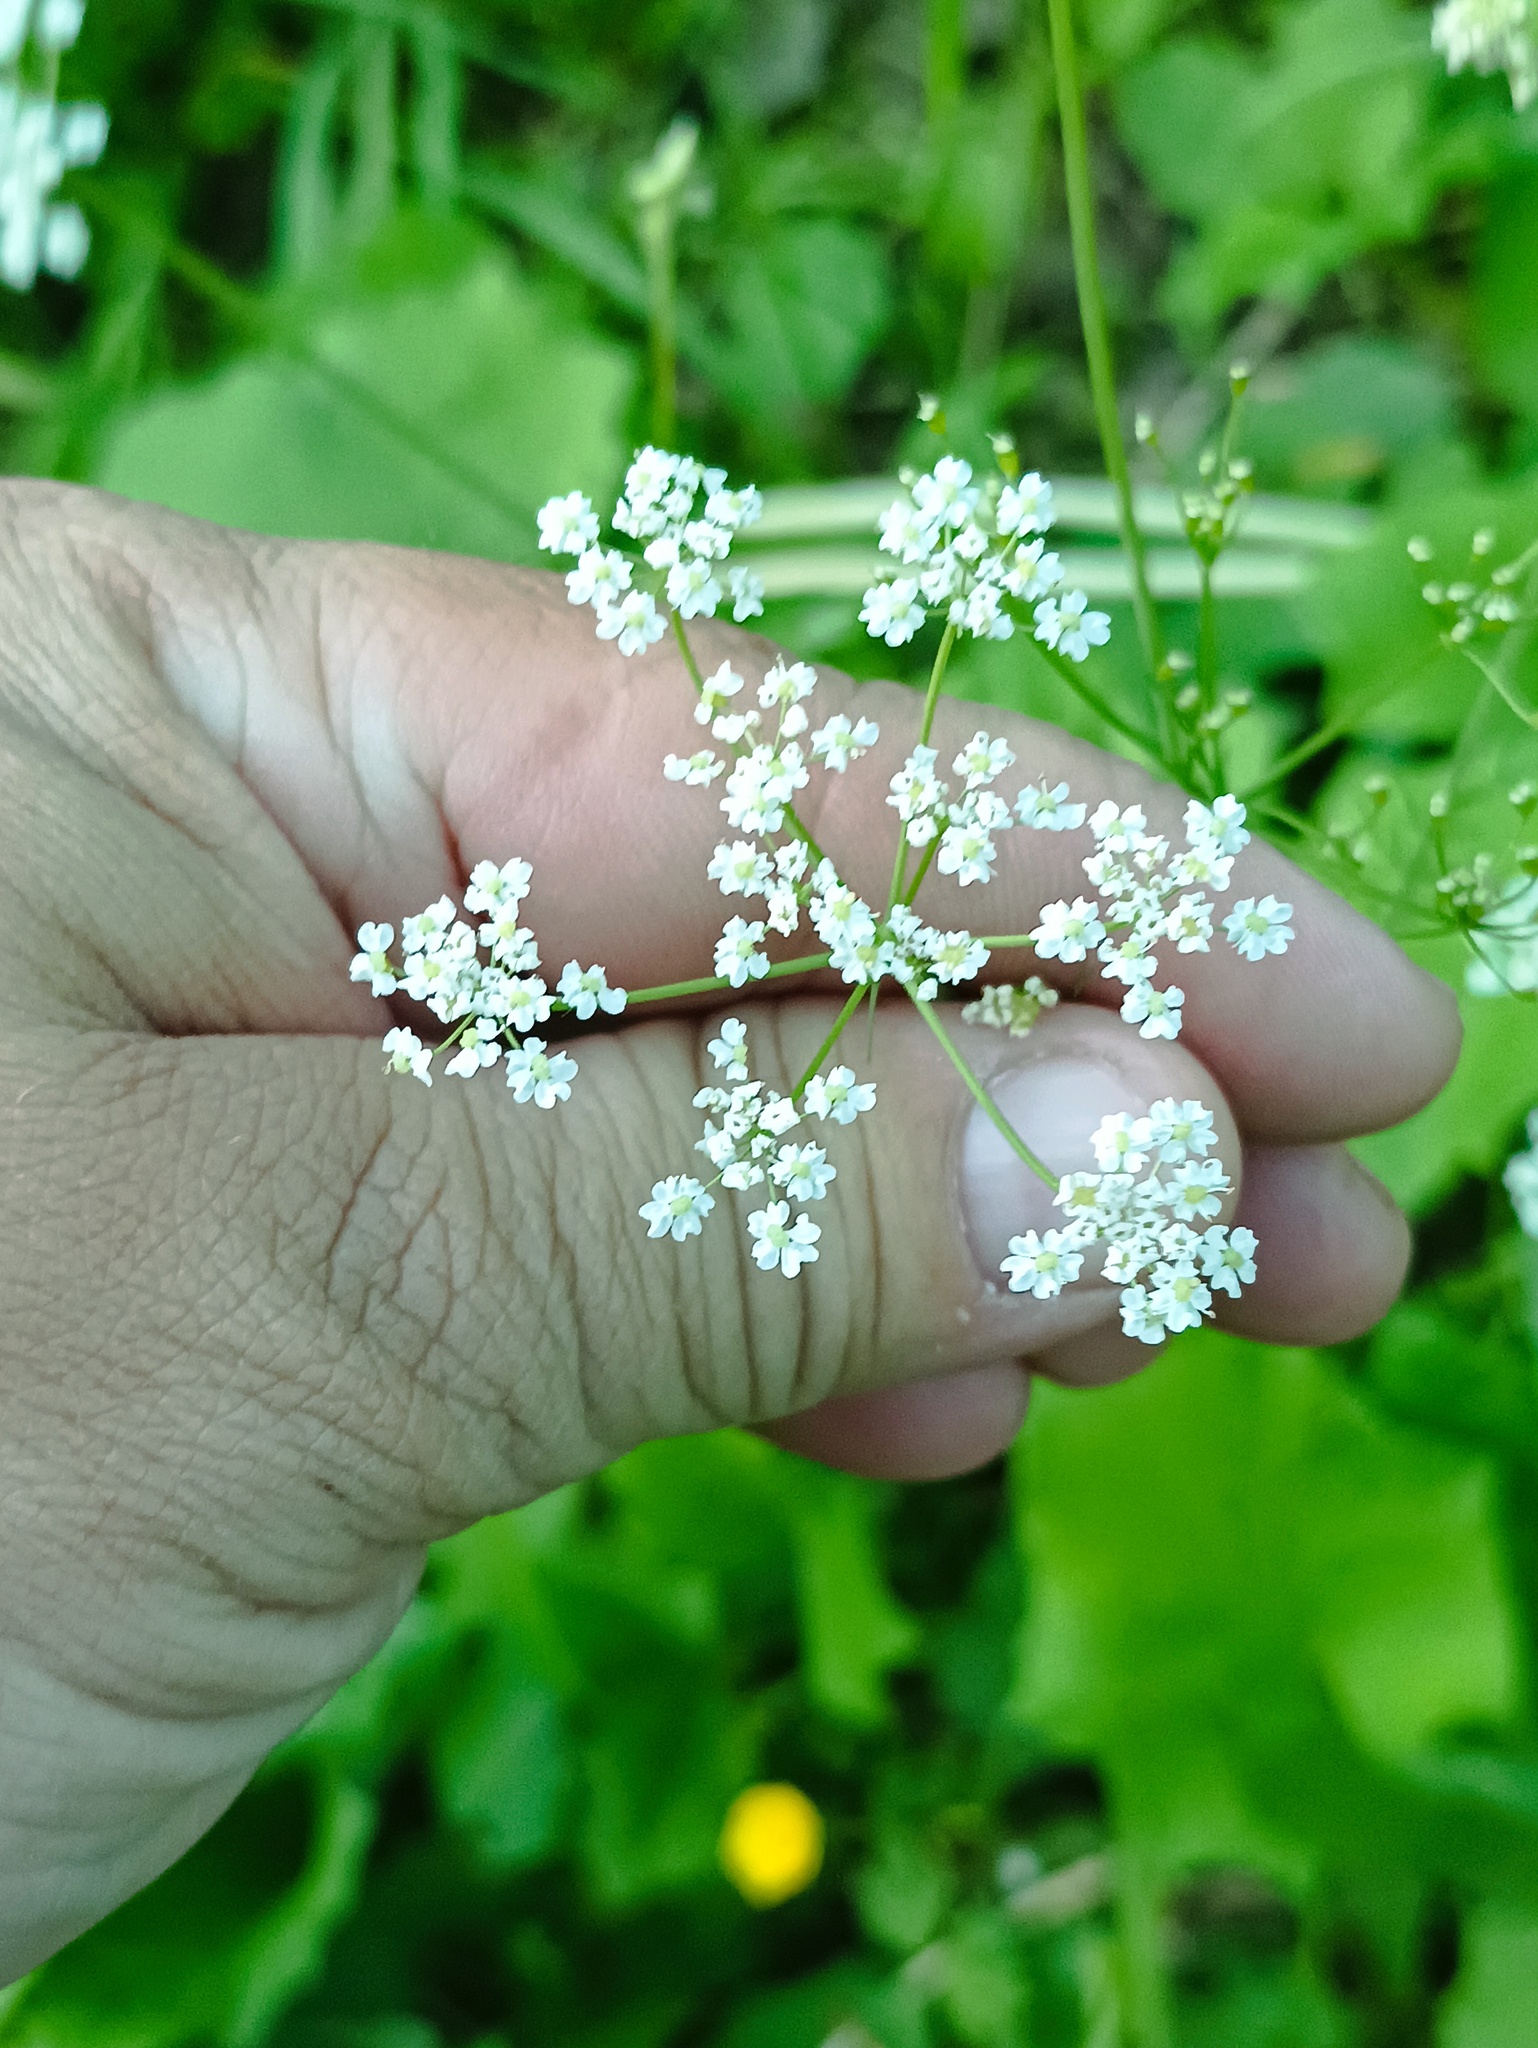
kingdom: Plantae
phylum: Tracheophyta
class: Magnoliopsida
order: Apiales
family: Apiaceae
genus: Carum
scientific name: Carum carvi
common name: Caraway
